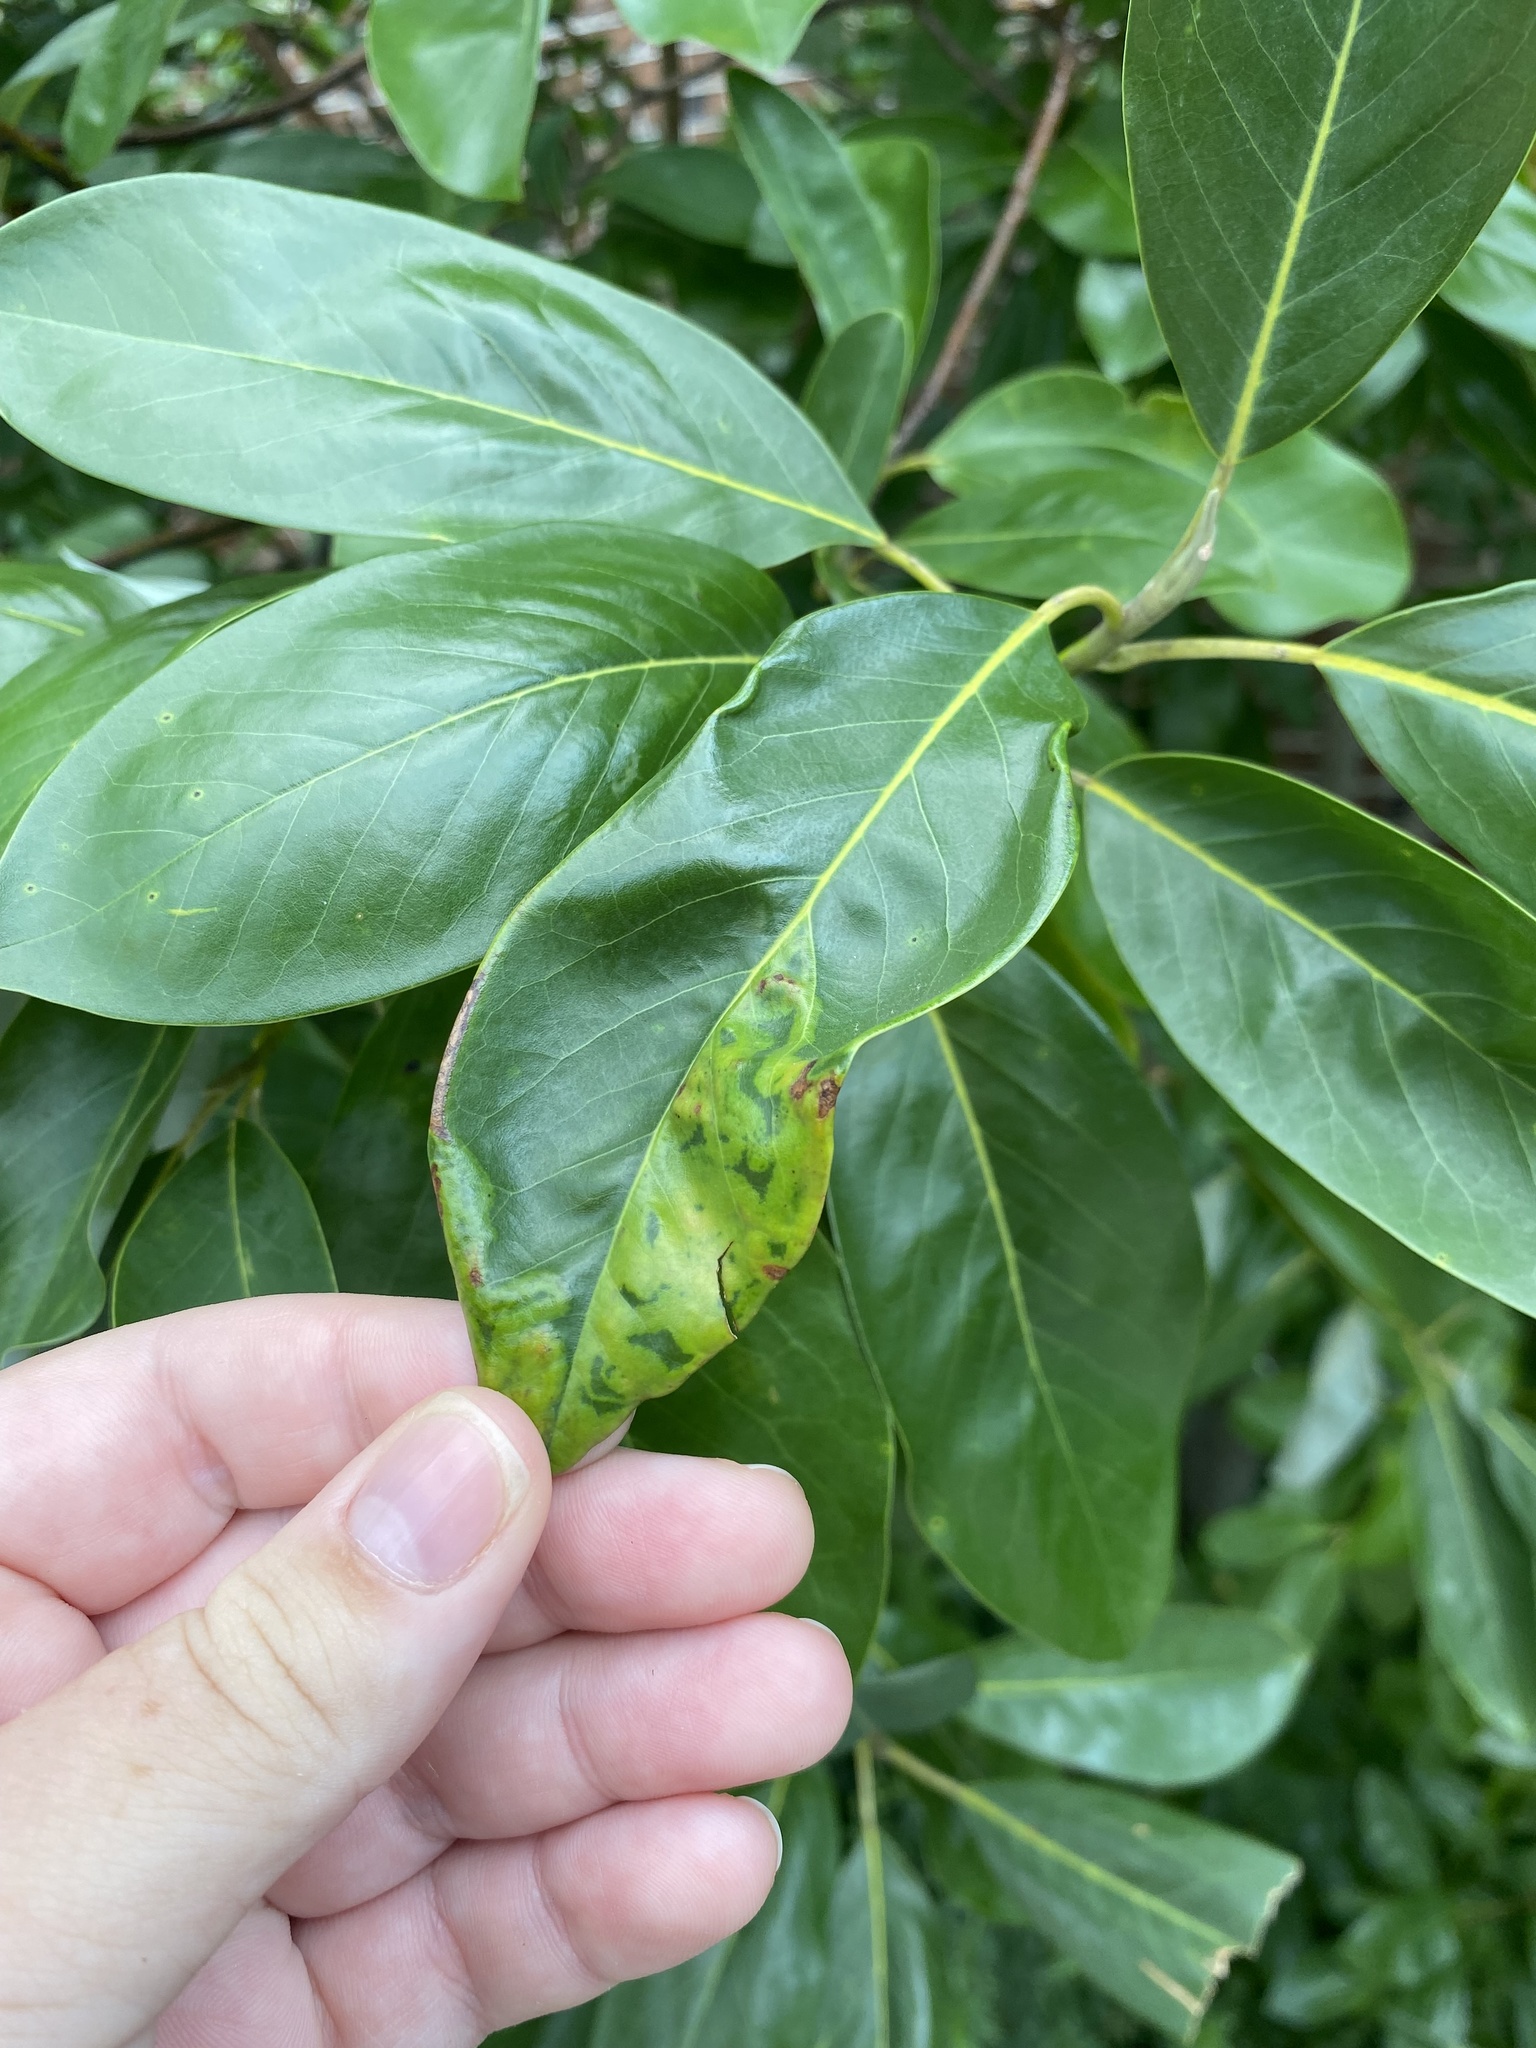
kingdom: Animalia
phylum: Arthropoda
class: Insecta
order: Lepidoptera
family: Gracillariidae
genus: Phyllocnistis
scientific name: Phyllocnistis liriodendronella
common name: Tulip tree leaf miner
